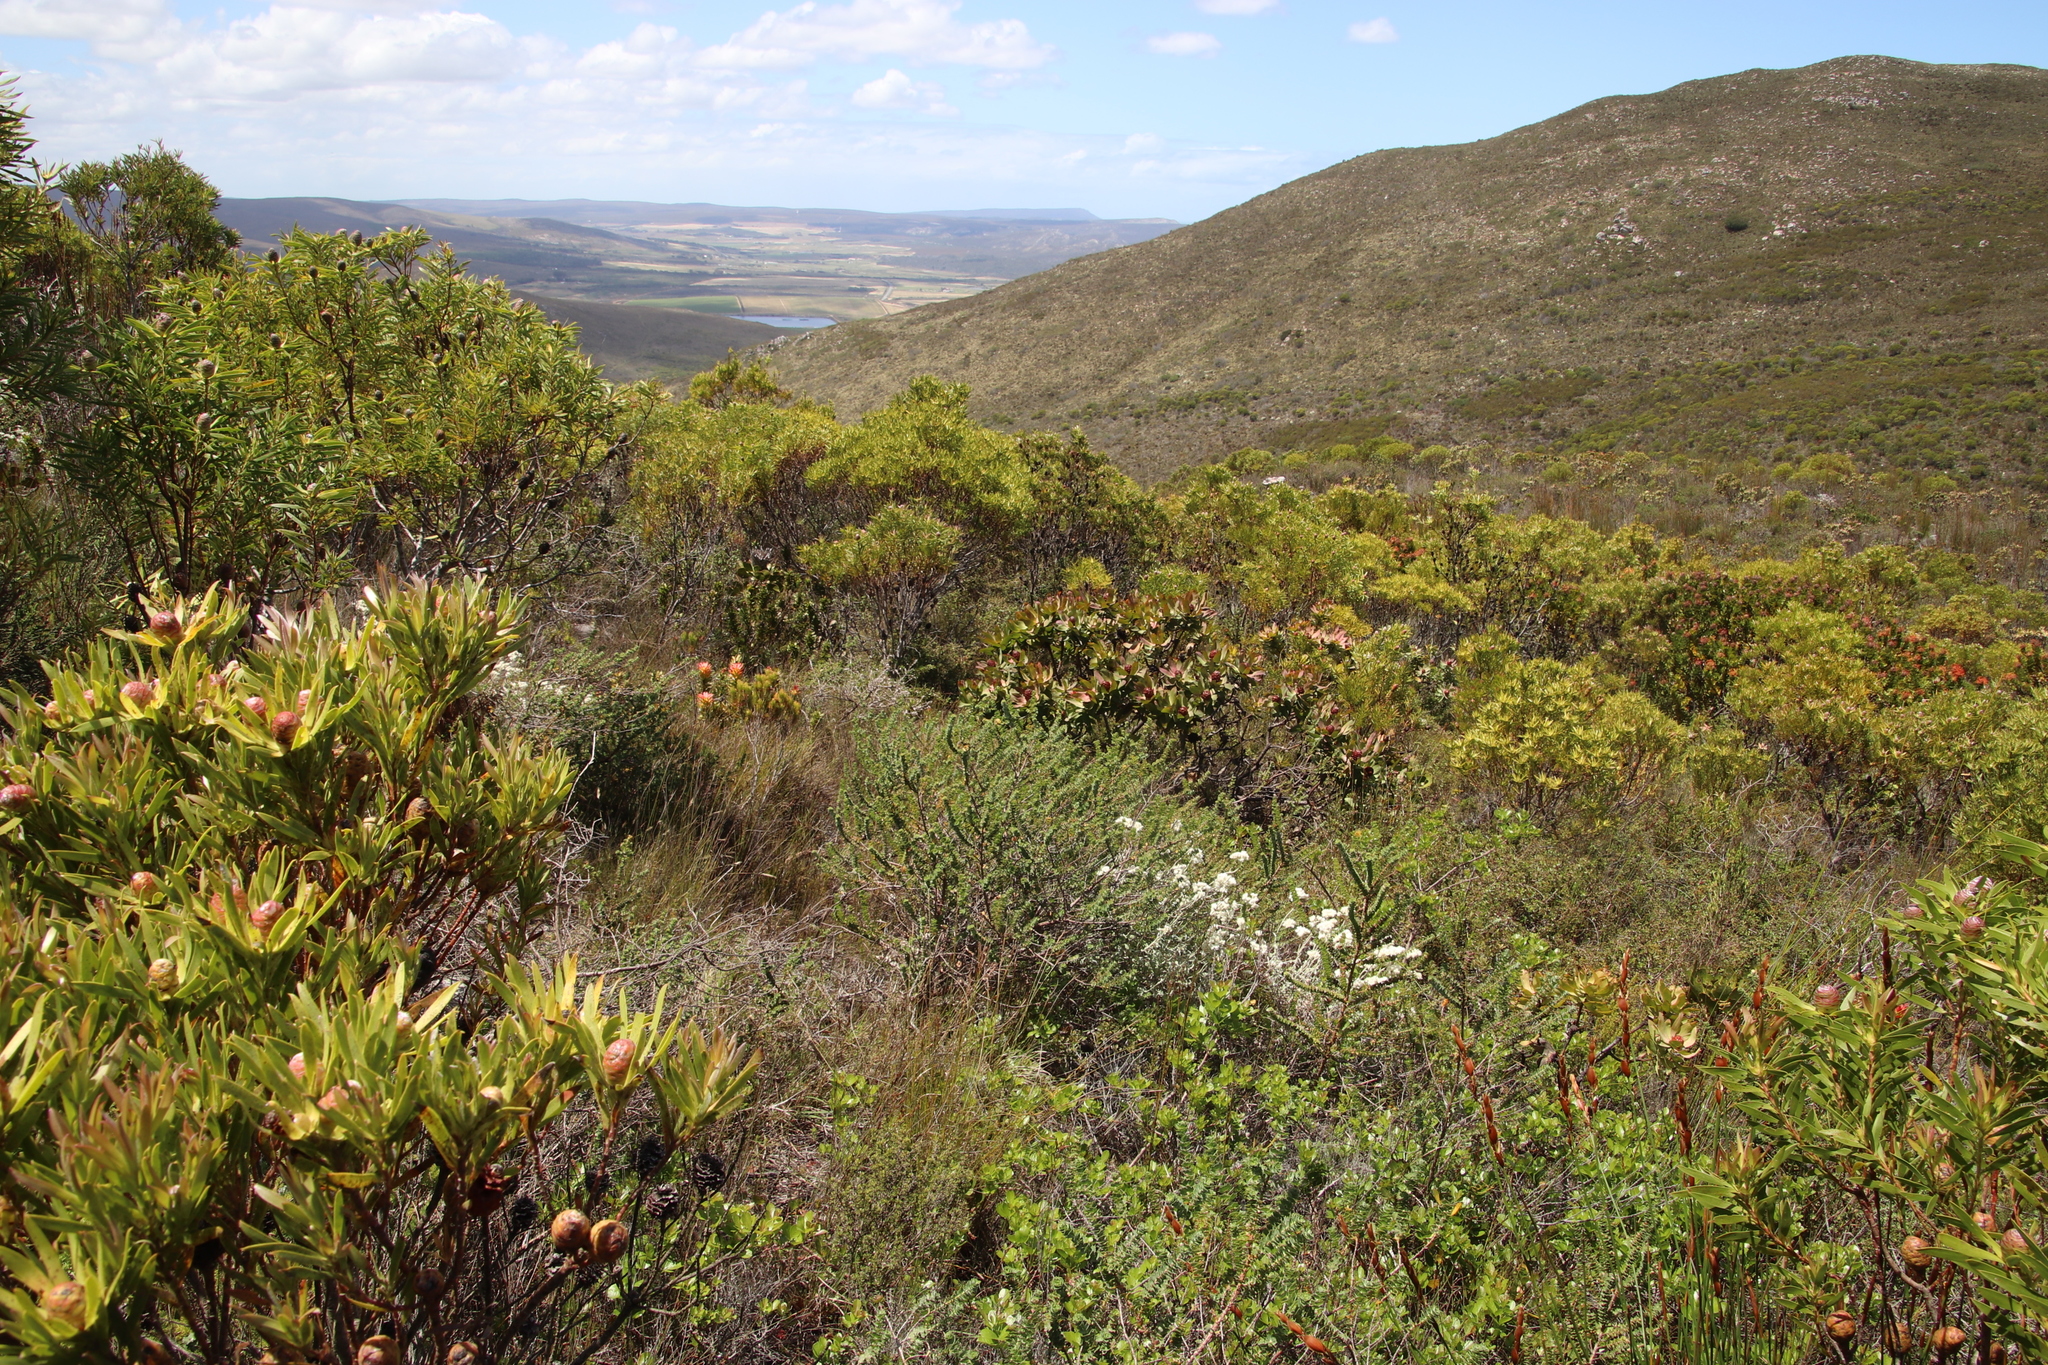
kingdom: Plantae
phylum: Tracheophyta
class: Magnoliopsida
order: Proteales
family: Proteaceae
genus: Leucadendron
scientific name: Leucadendron coniferum
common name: Dune conebush
